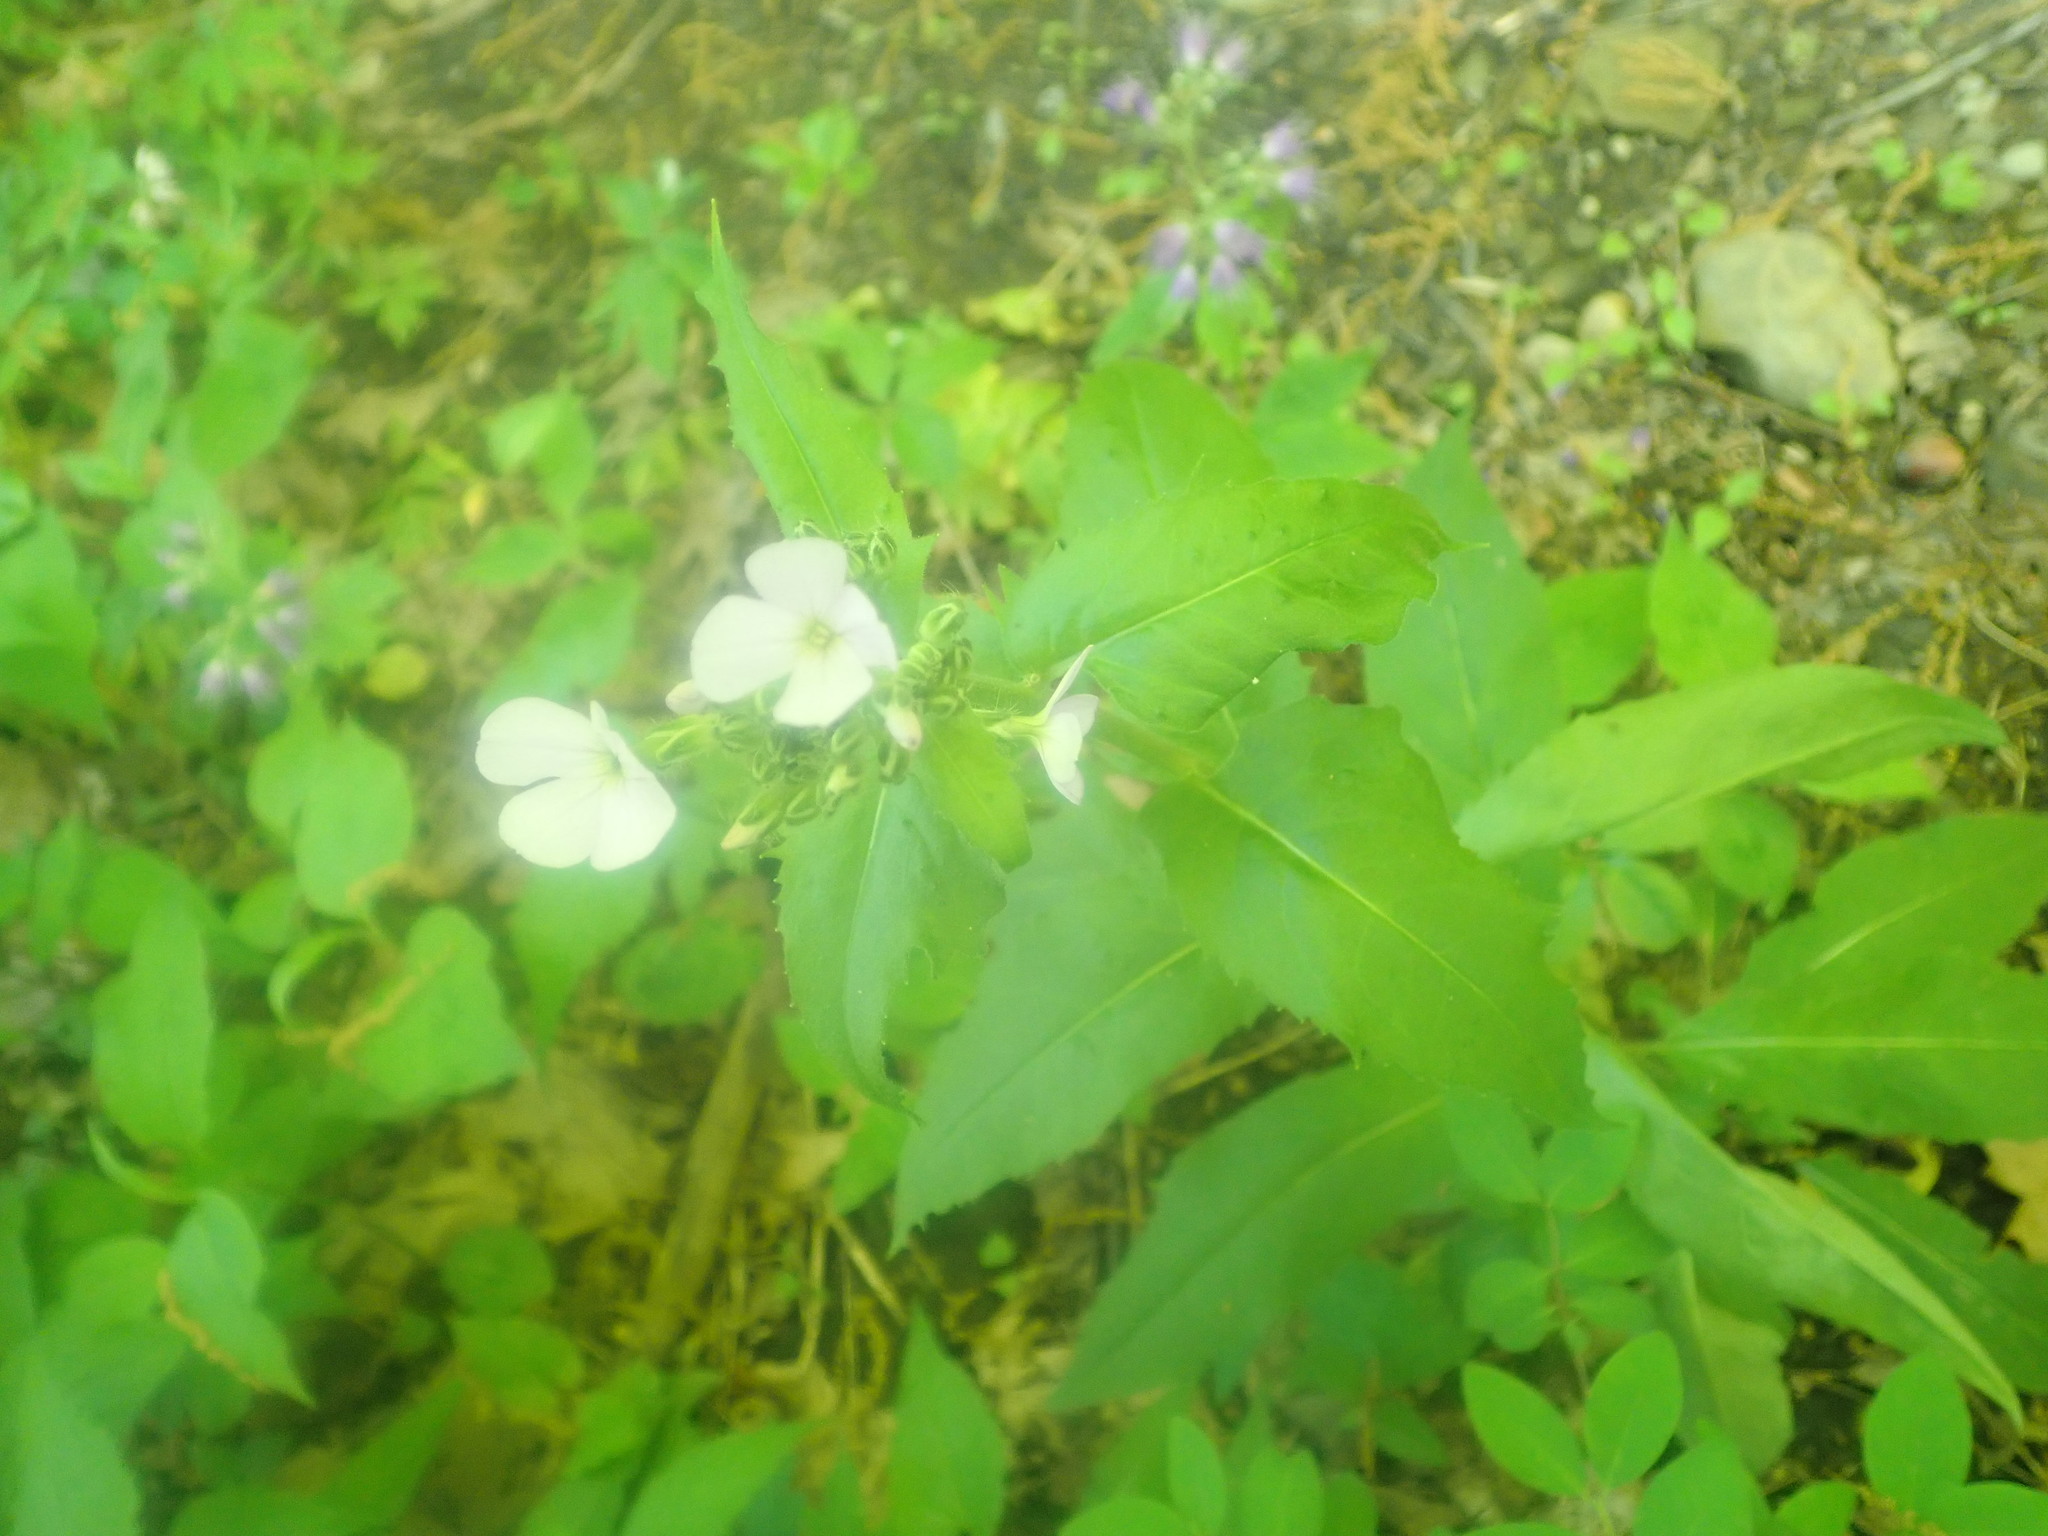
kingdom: Plantae
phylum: Tracheophyta
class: Magnoliopsida
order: Brassicales
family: Brassicaceae
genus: Hesperis
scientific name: Hesperis matronalis
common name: Dame's-violet
